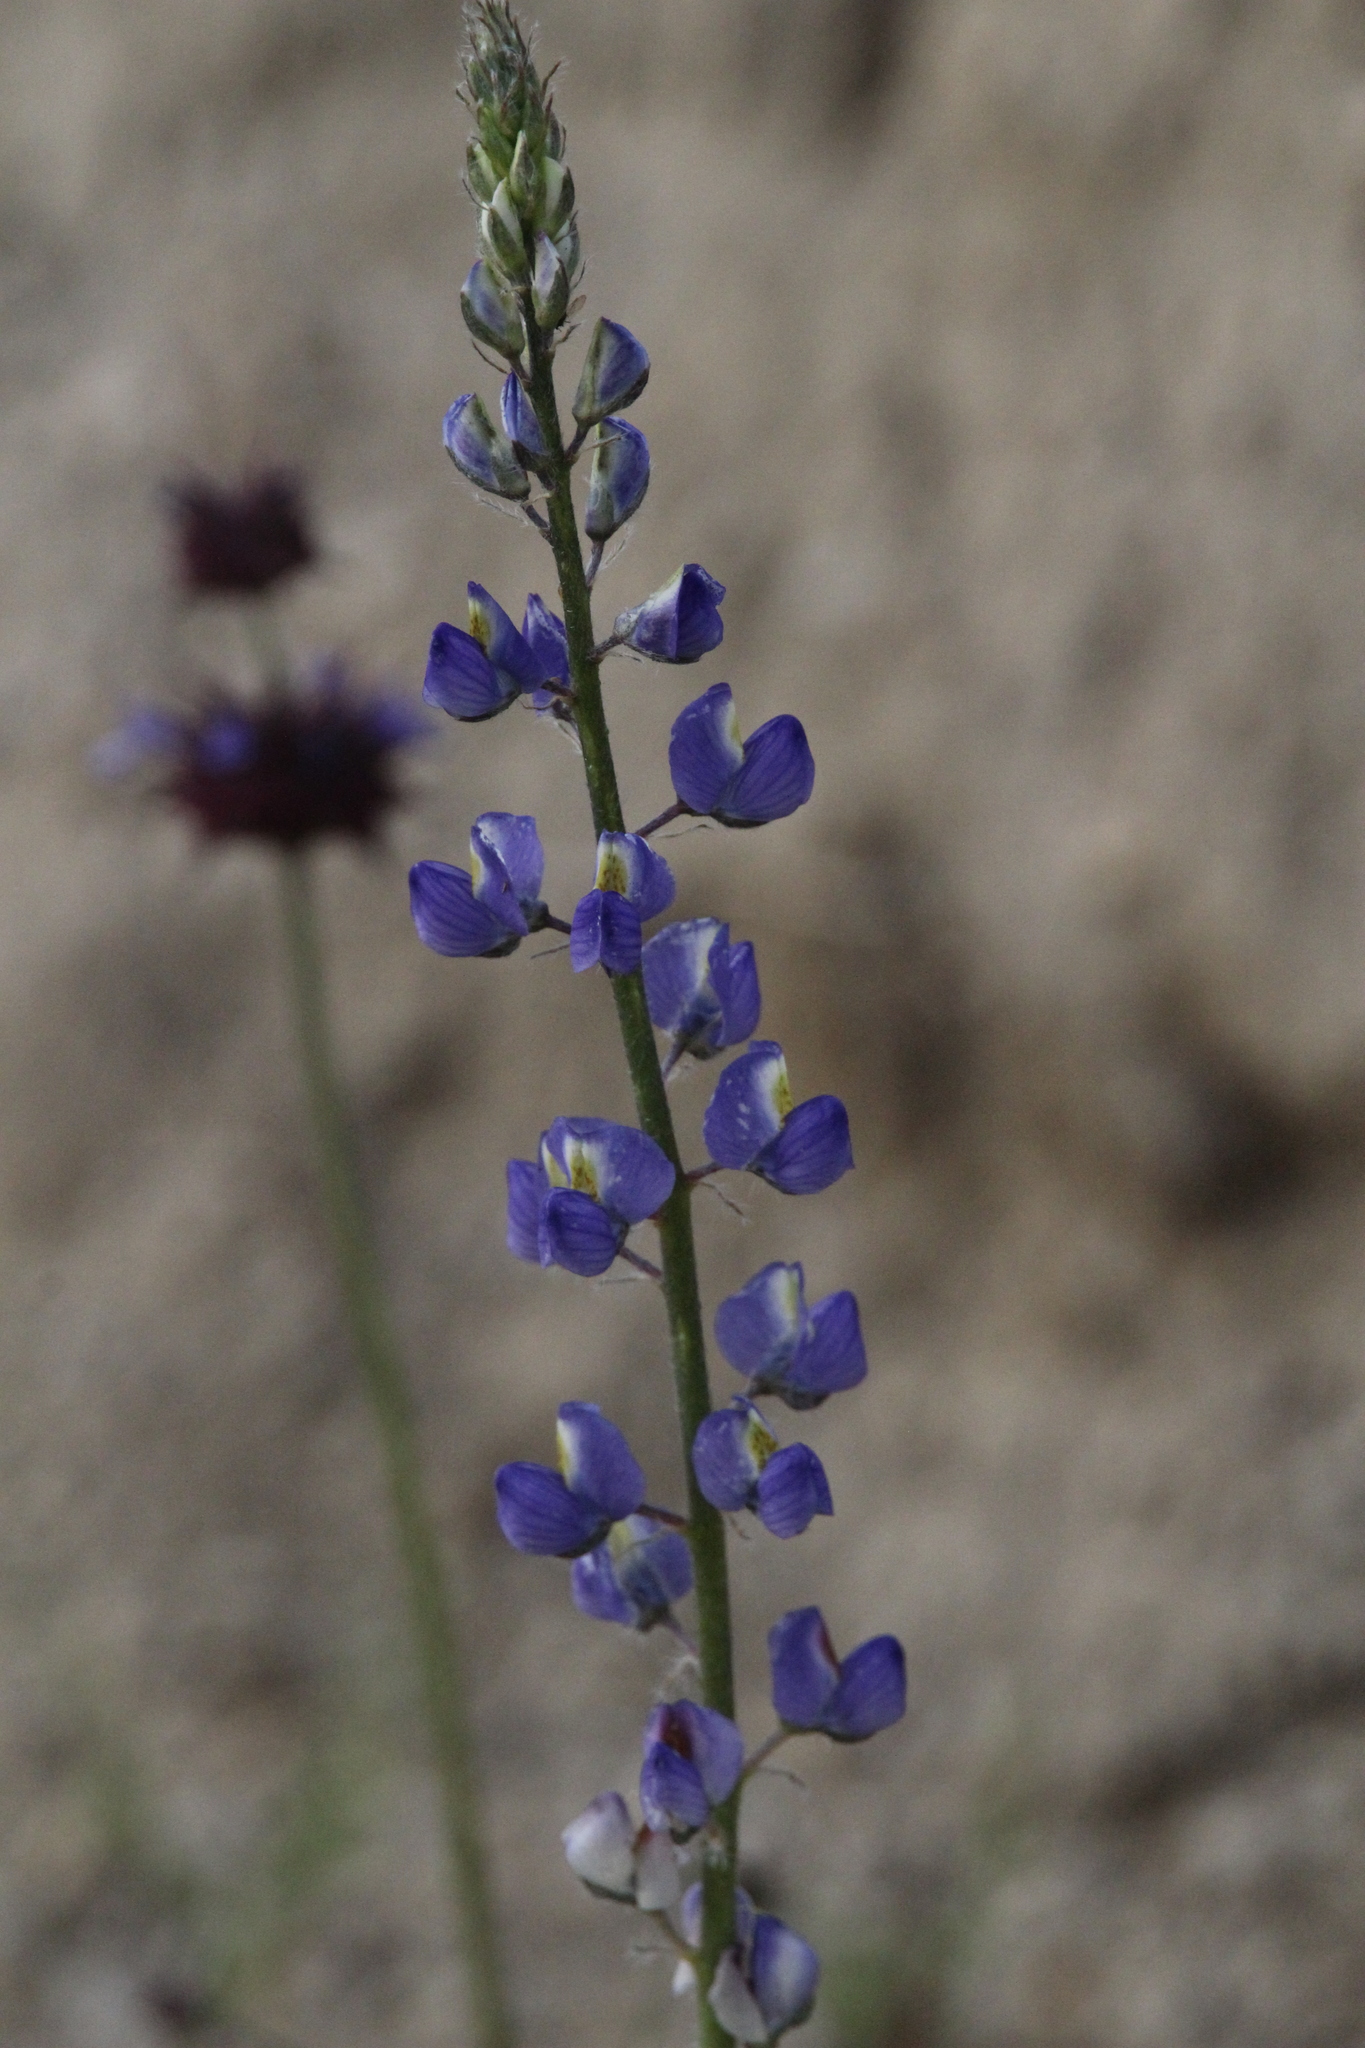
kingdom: Plantae
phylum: Tracheophyta
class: Magnoliopsida
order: Fabales
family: Fabaceae
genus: Lupinus
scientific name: Lupinus sparsiflorus
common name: Coulter's lupine
